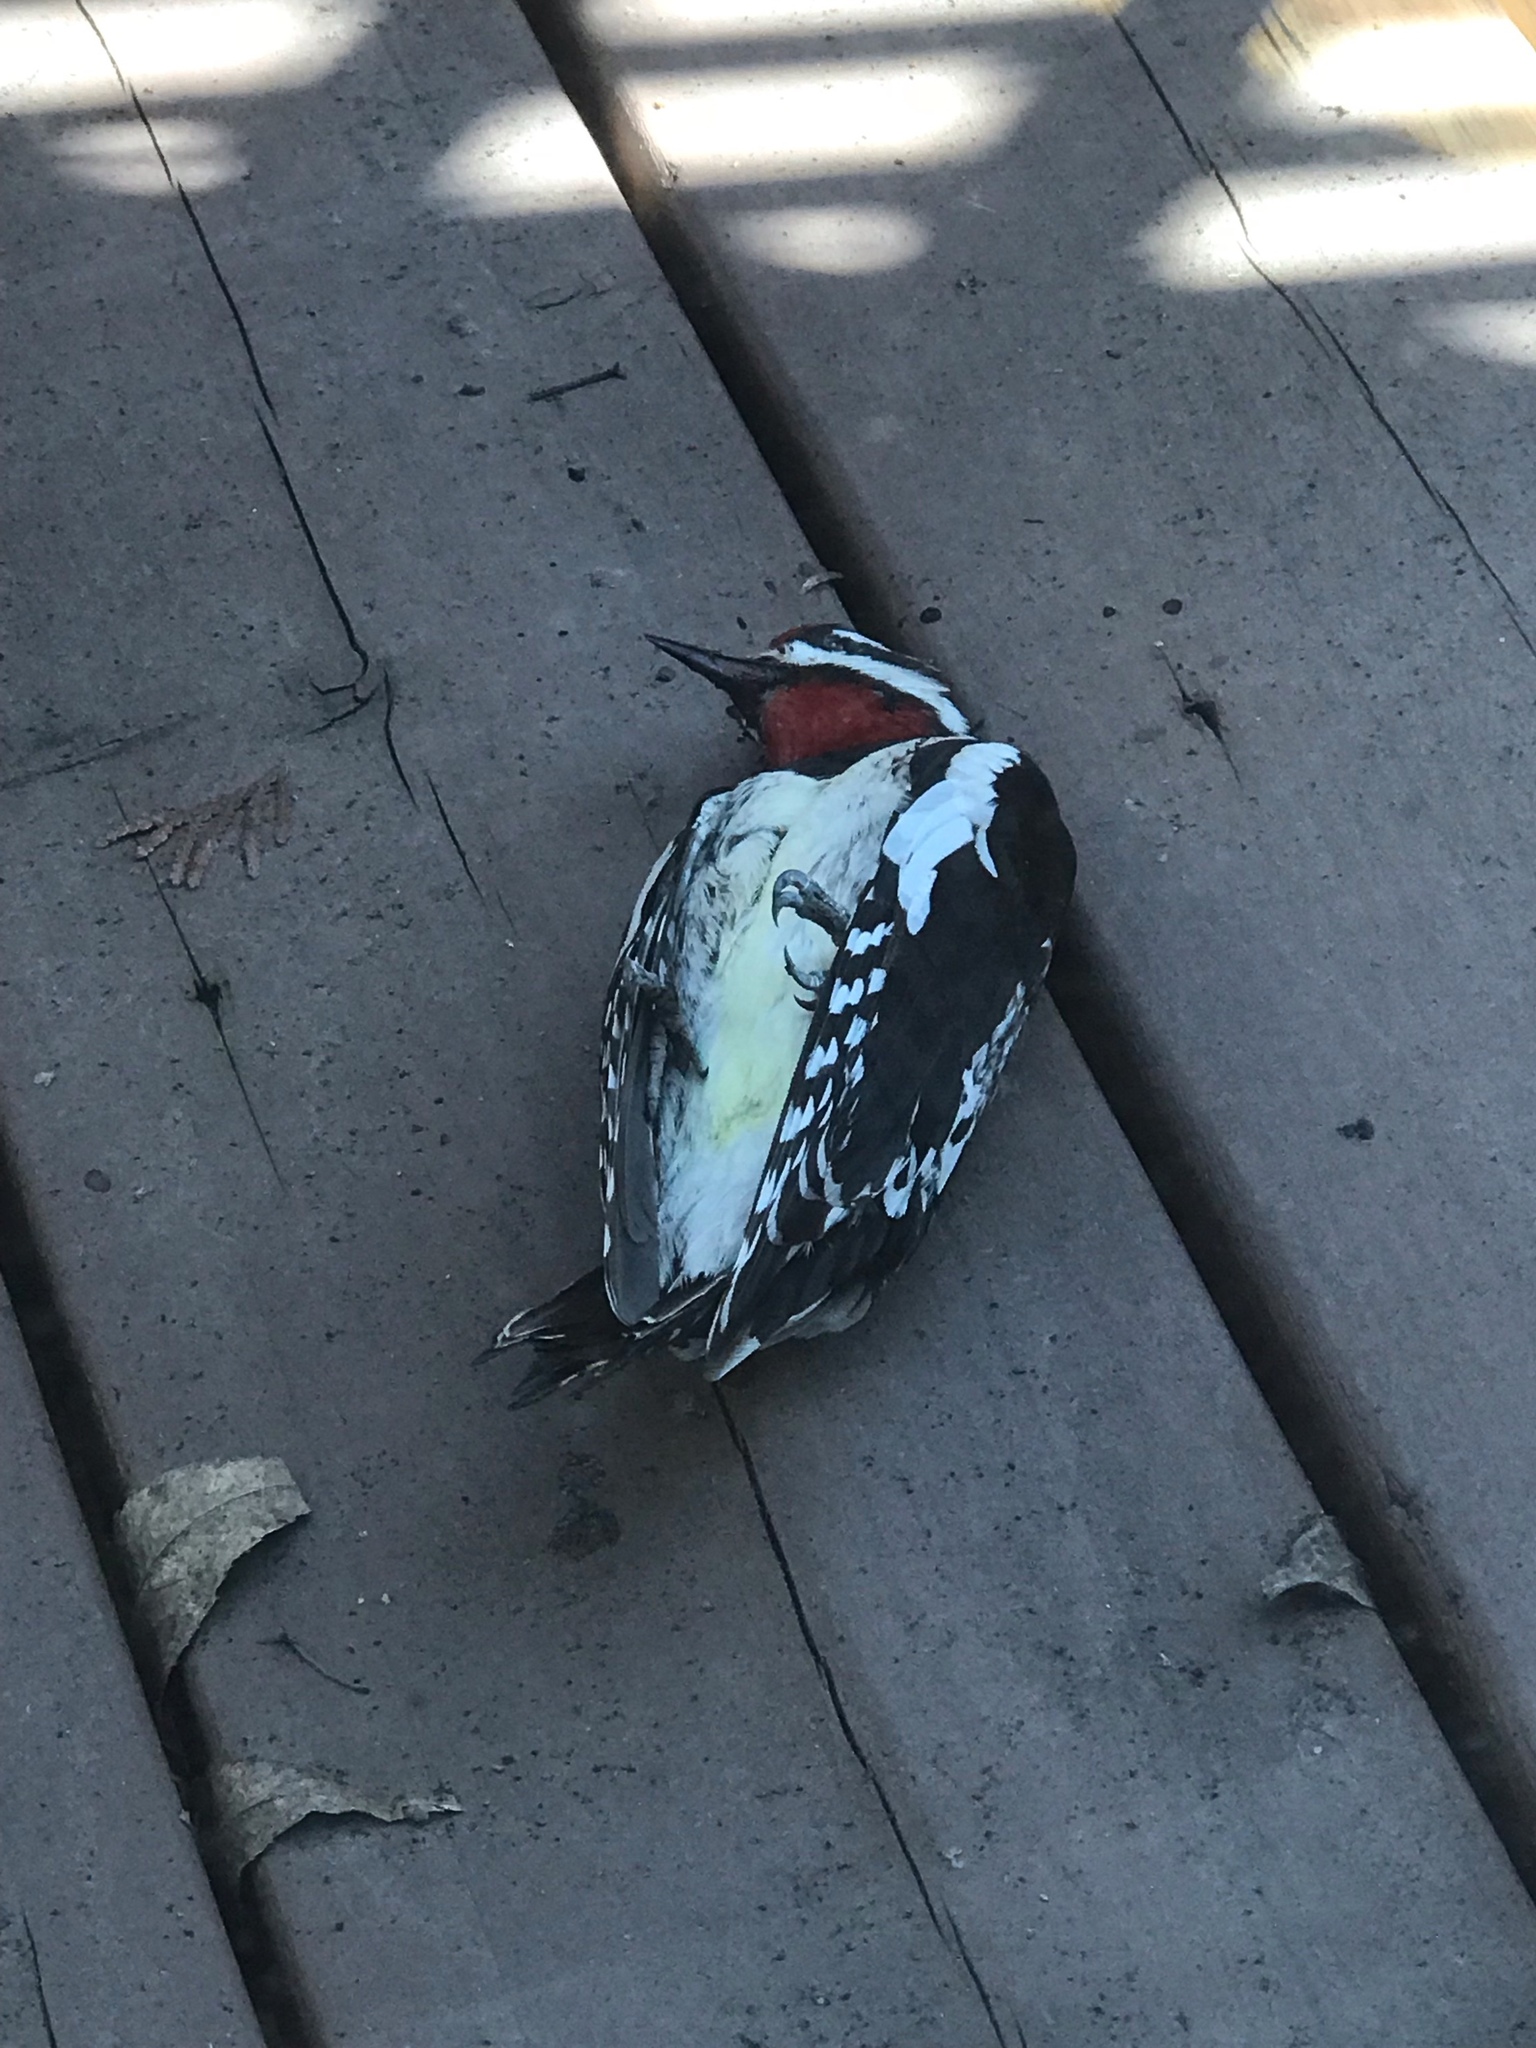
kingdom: Animalia
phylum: Chordata
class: Aves
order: Piciformes
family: Picidae
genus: Sphyrapicus
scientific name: Sphyrapicus varius
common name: Yellow-bellied sapsucker
